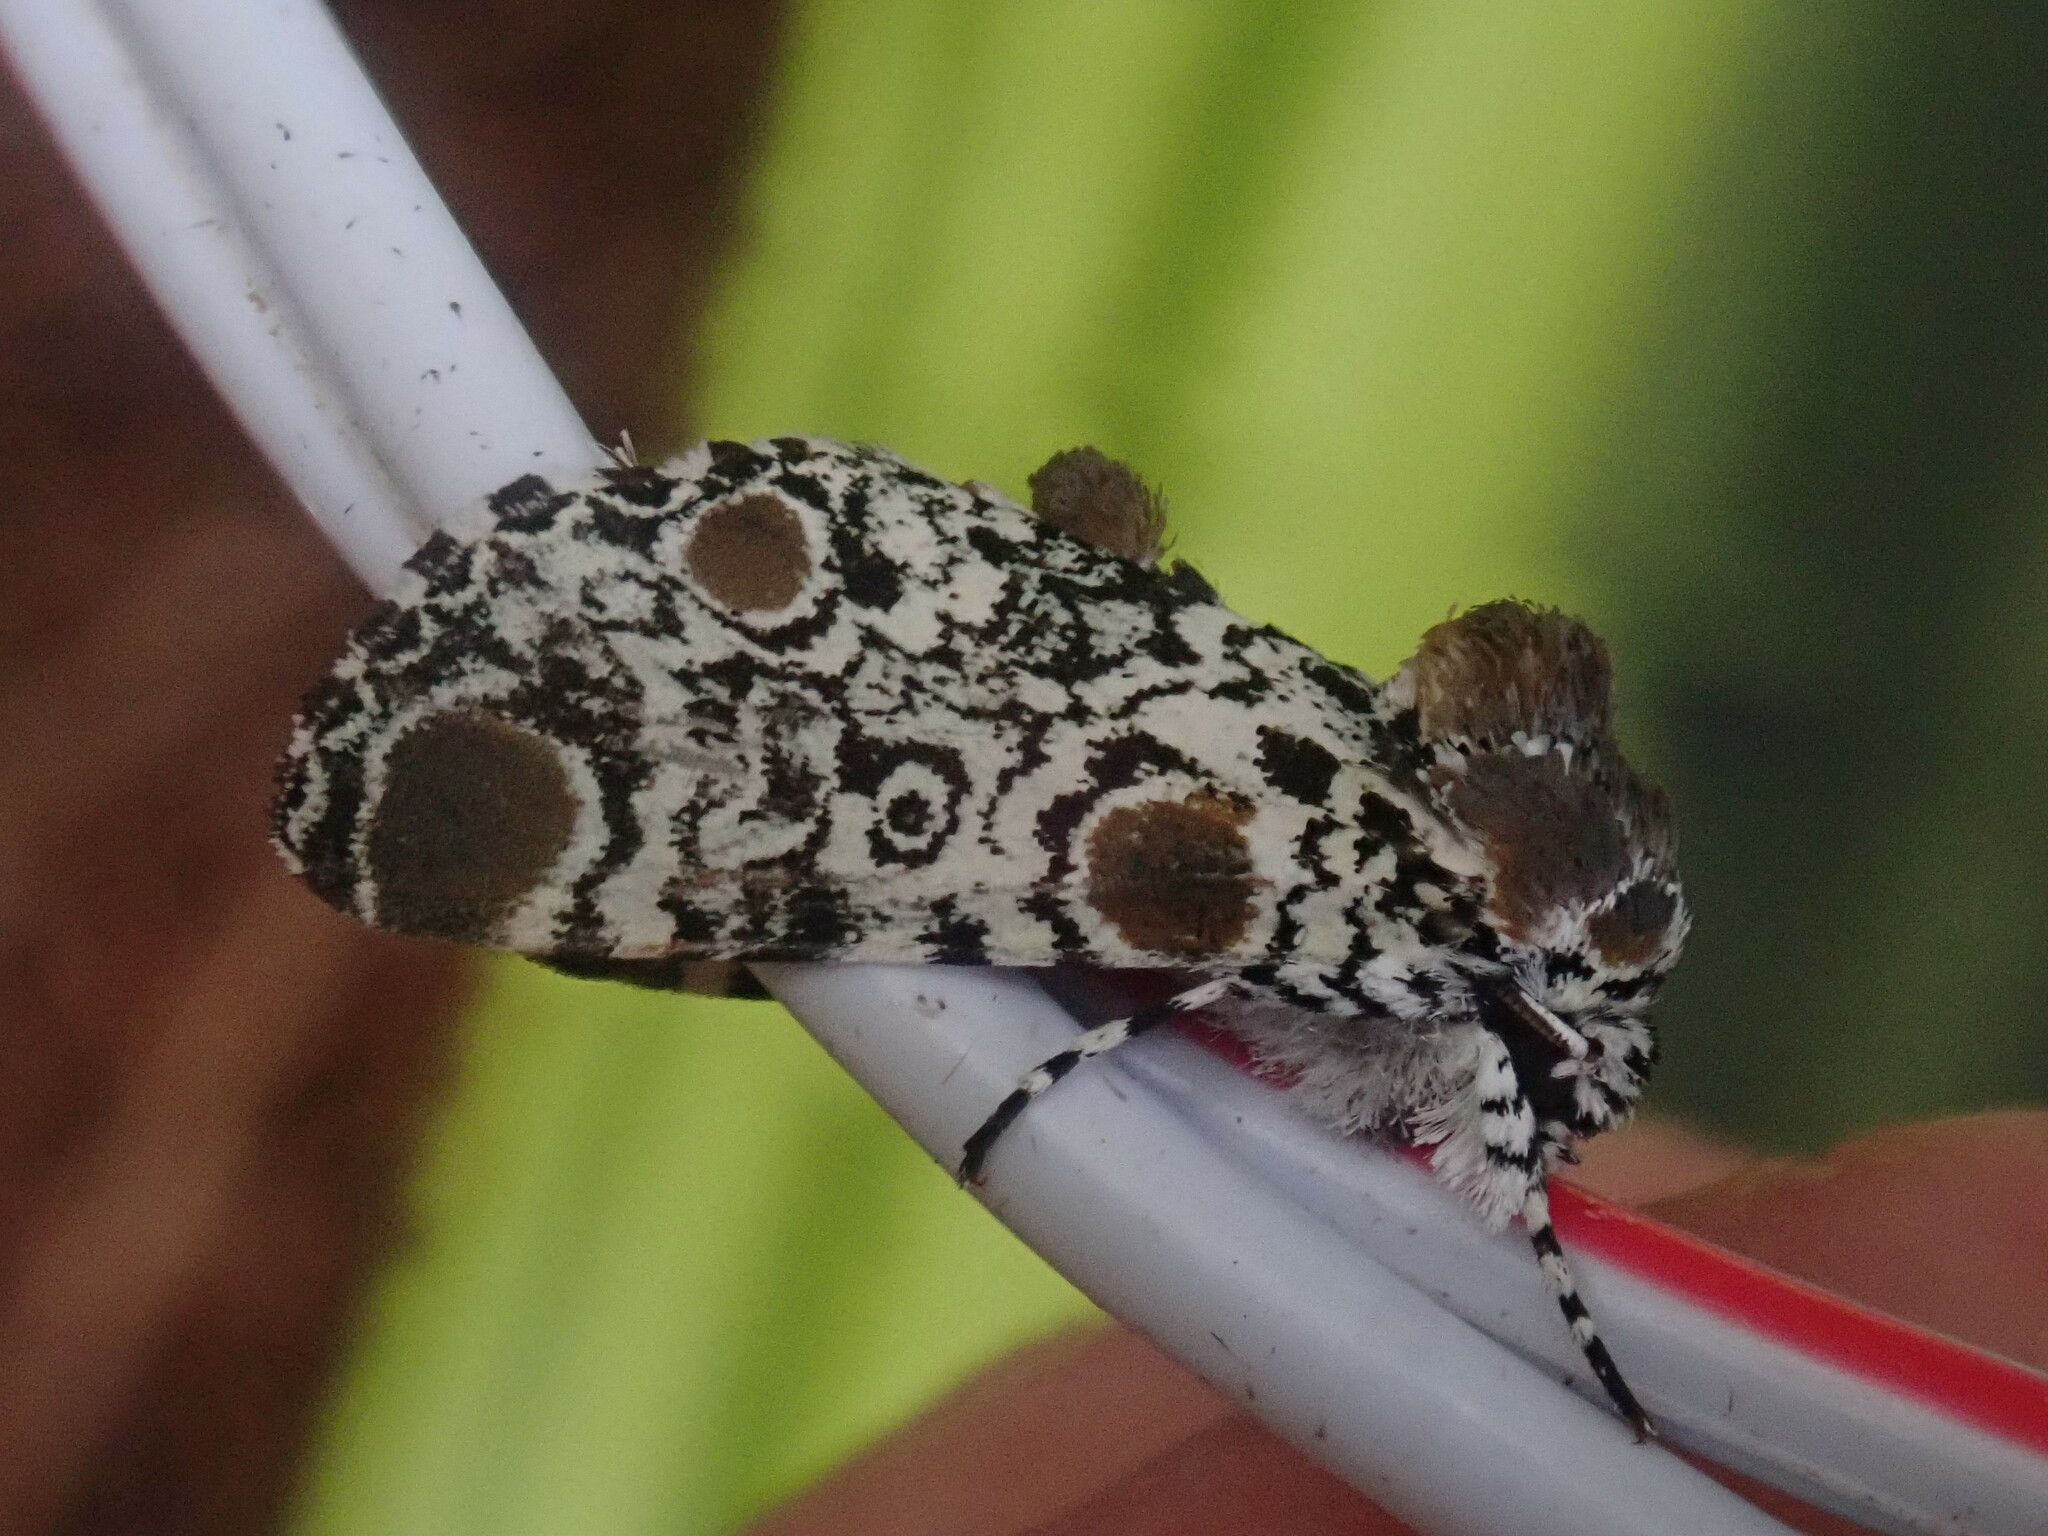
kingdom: Animalia
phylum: Arthropoda
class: Insecta
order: Lepidoptera
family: Noctuidae
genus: Harrisimemna
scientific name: Harrisimemna trisignata
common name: Harris threespot
